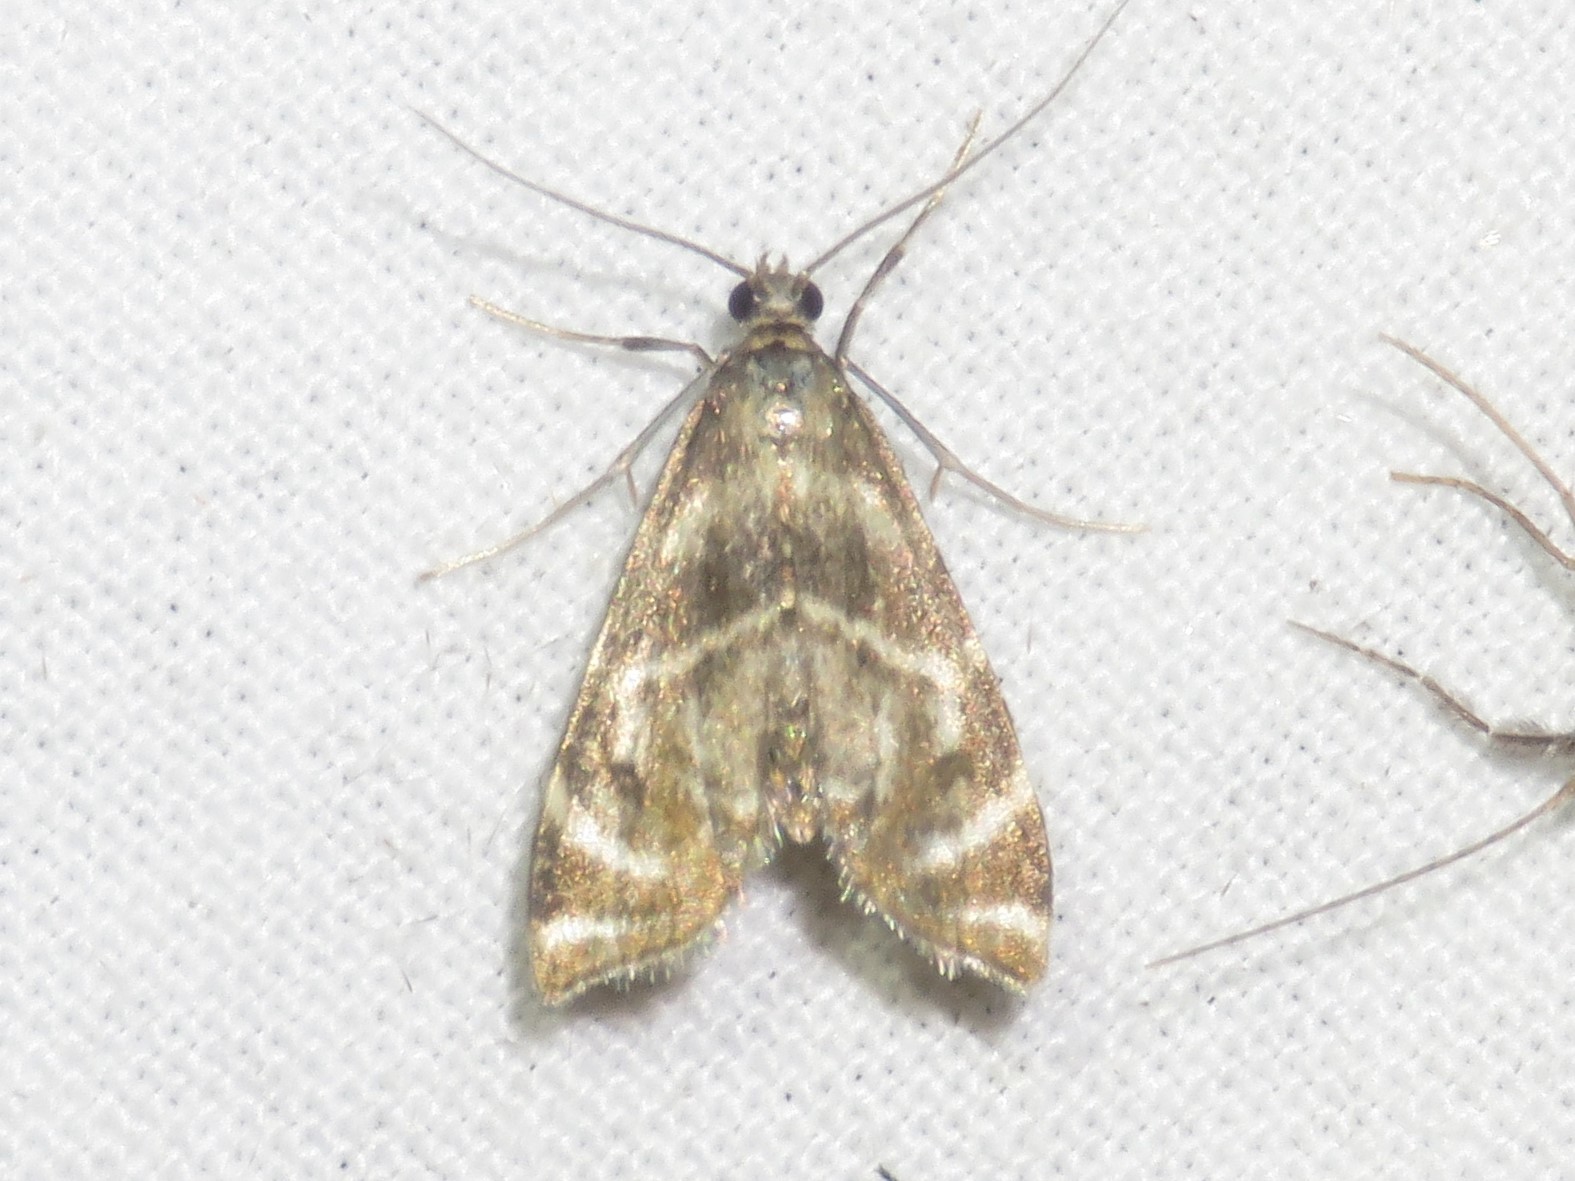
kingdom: Animalia
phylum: Arthropoda
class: Insecta
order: Lepidoptera
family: Crambidae
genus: Petrophila
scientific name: Petrophila canadensis
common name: Canadian petrophila
